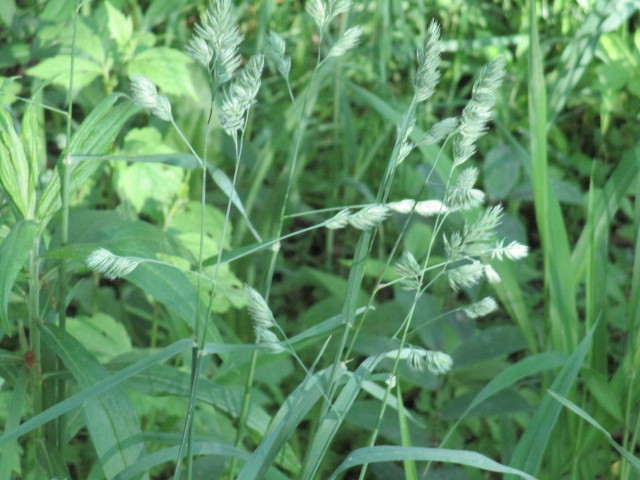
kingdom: Plantae
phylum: Tracheophyta
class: Liliopsida
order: Poales
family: Poaceae
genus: Dactylis
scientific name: Dactylis glomerata
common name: Orchardgrass
